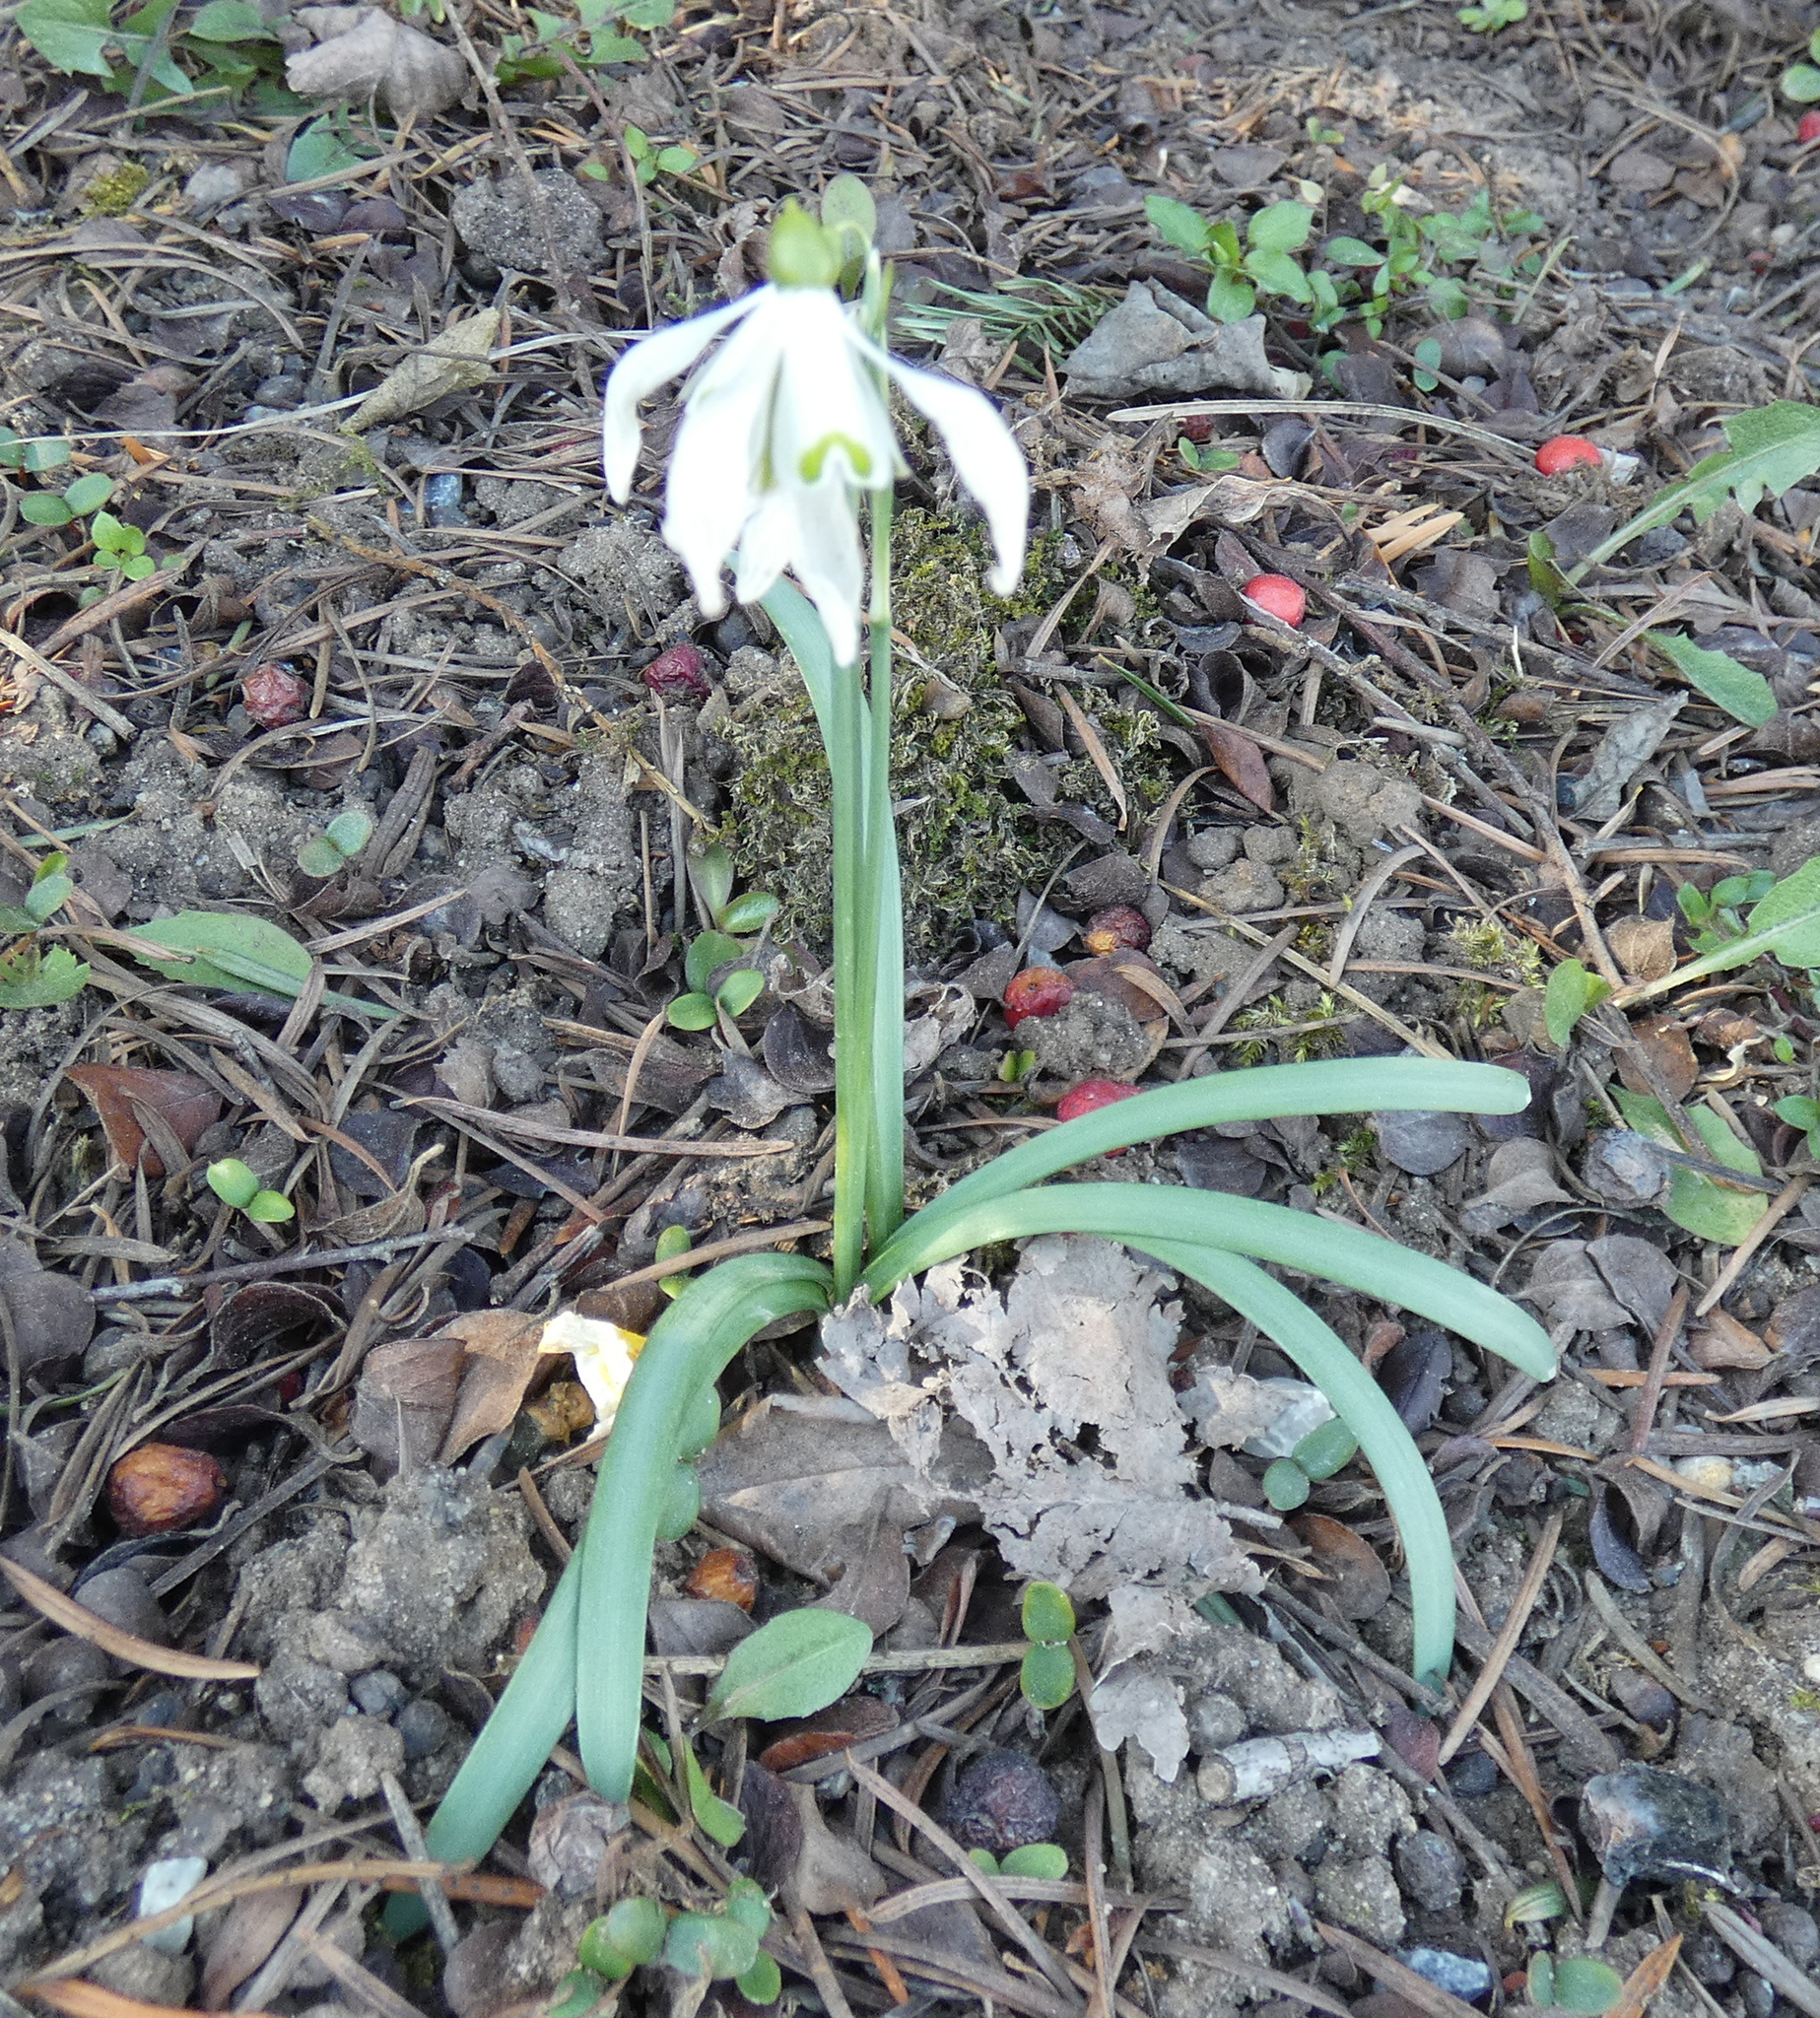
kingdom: Plantae
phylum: Tracheophyta
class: Liliopsida
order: Asparagales
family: Amaryllidaceae
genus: Galanthus
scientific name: Galanthus nivalis
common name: Snowdrop
